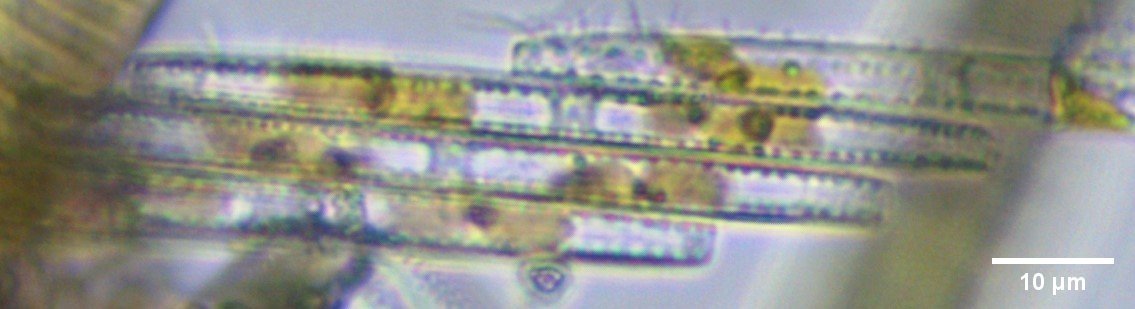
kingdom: Chromista
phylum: Ochrophyta
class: Bacillariophyceae
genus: Vibrio
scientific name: Vibrio paxillifer
